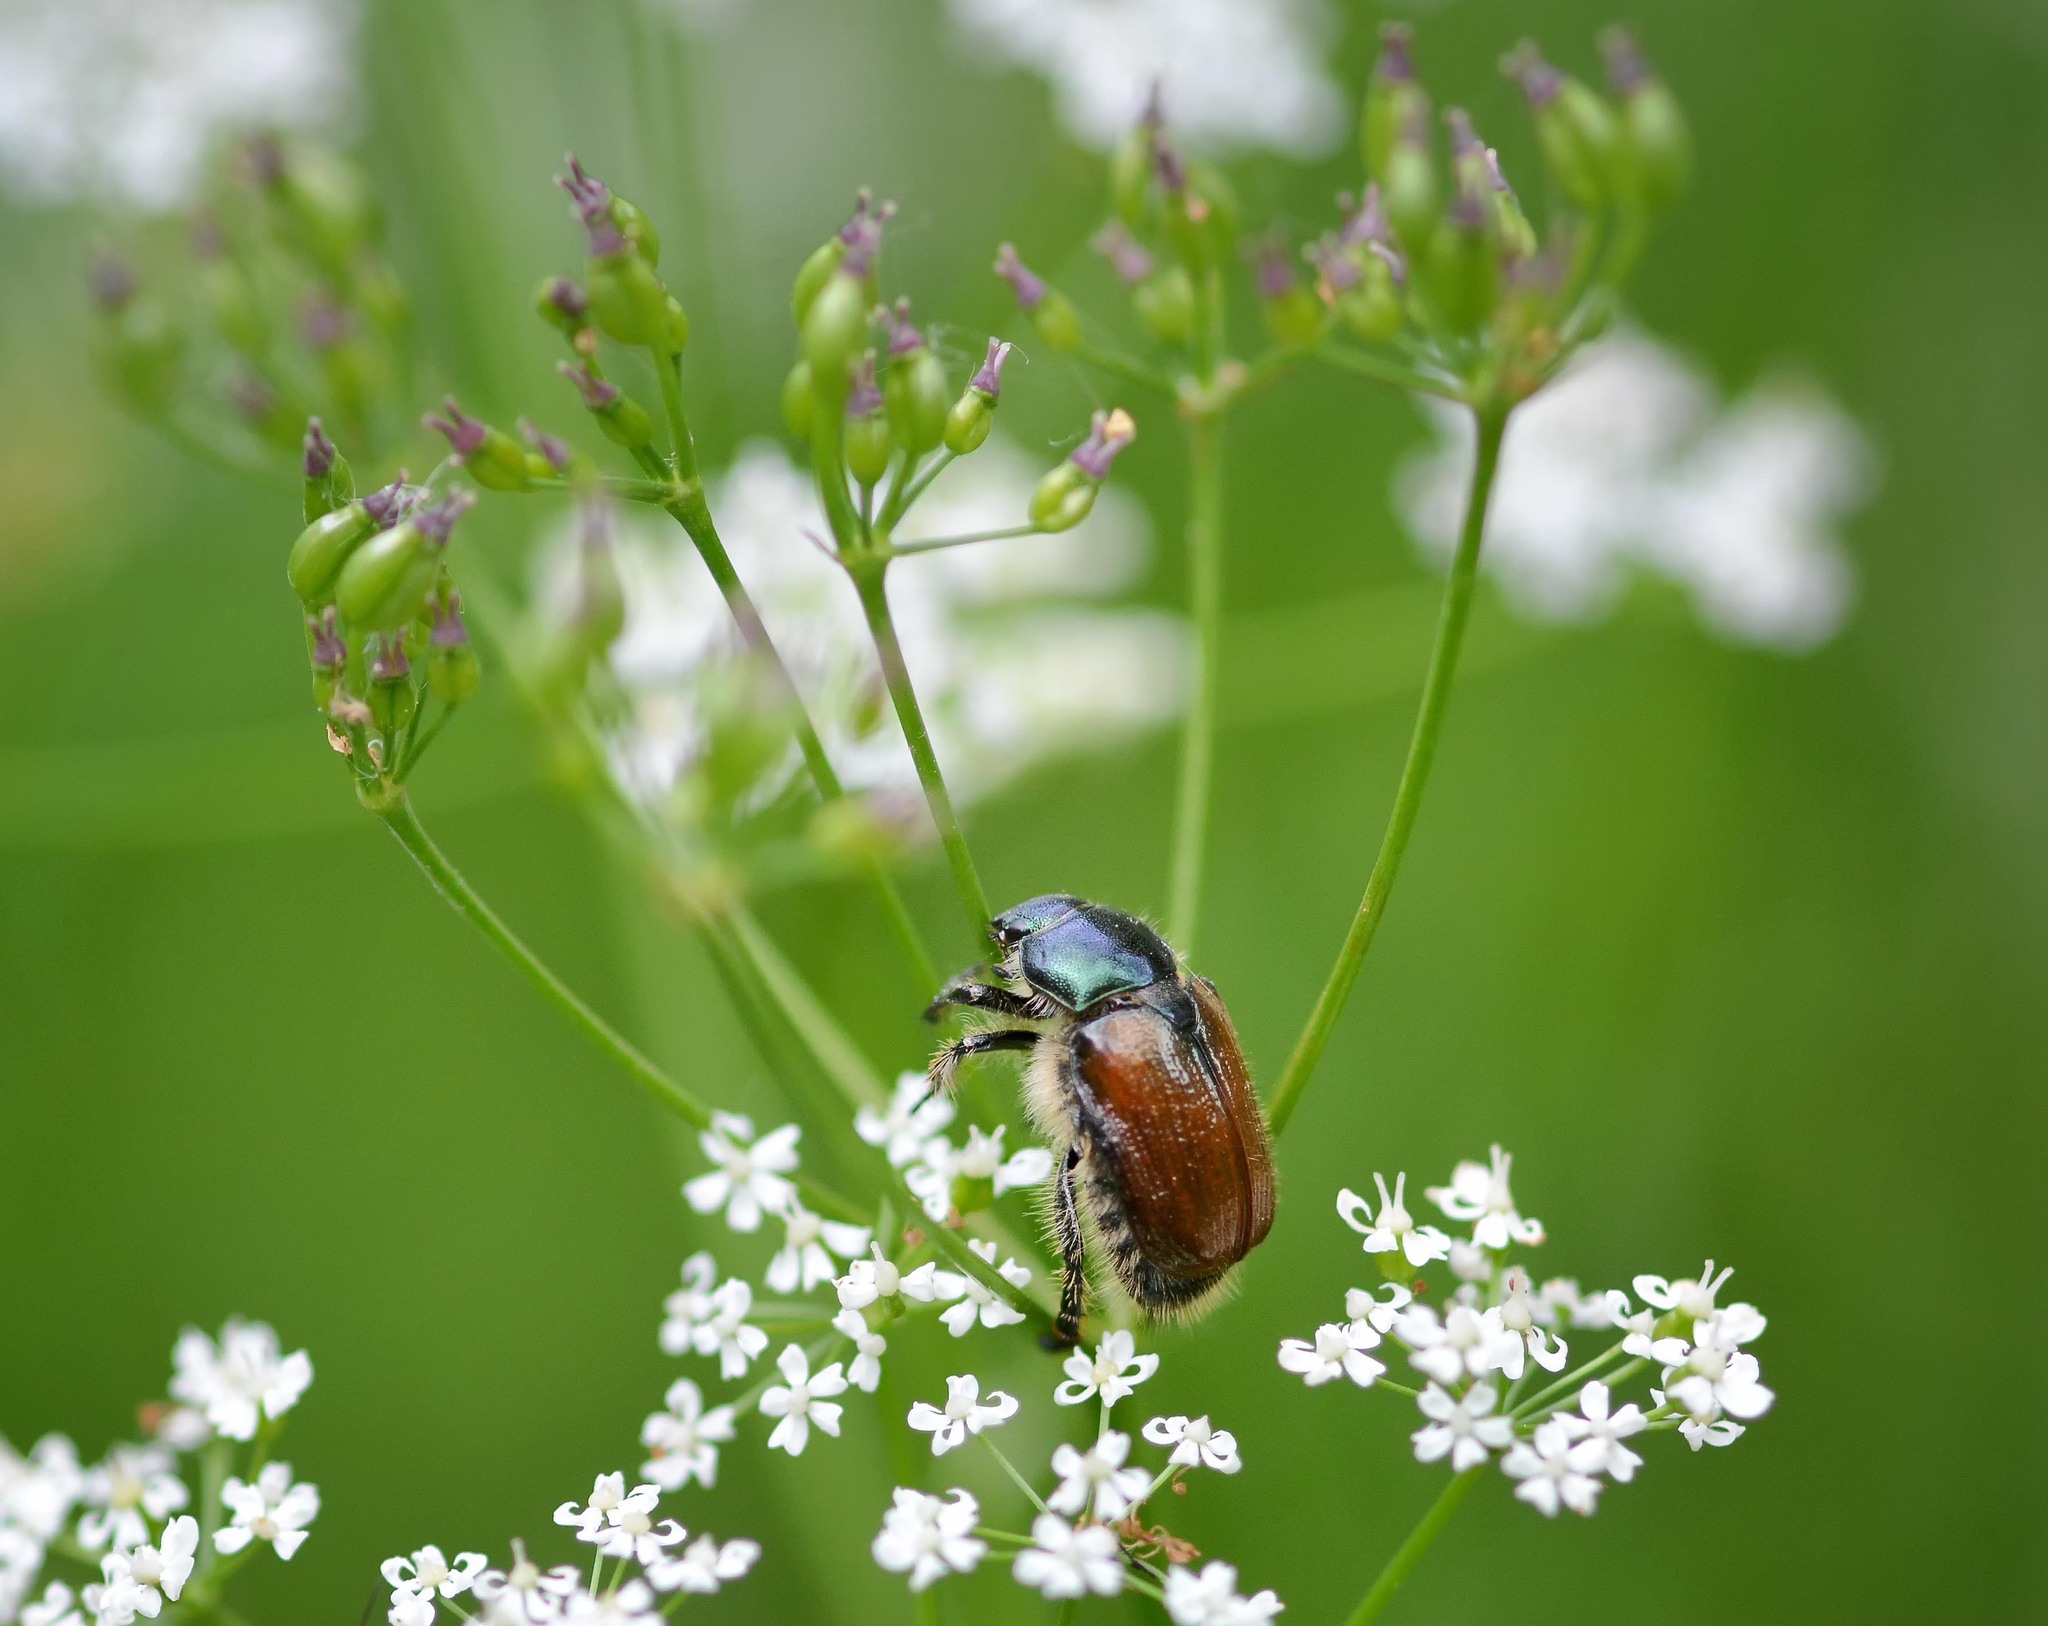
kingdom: Animalia
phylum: Arthropoda
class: Insecta
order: Coleoptera
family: Scarabaeidae
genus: Phyllopertha
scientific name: Phyllopertha horticola
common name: Garden chafer
